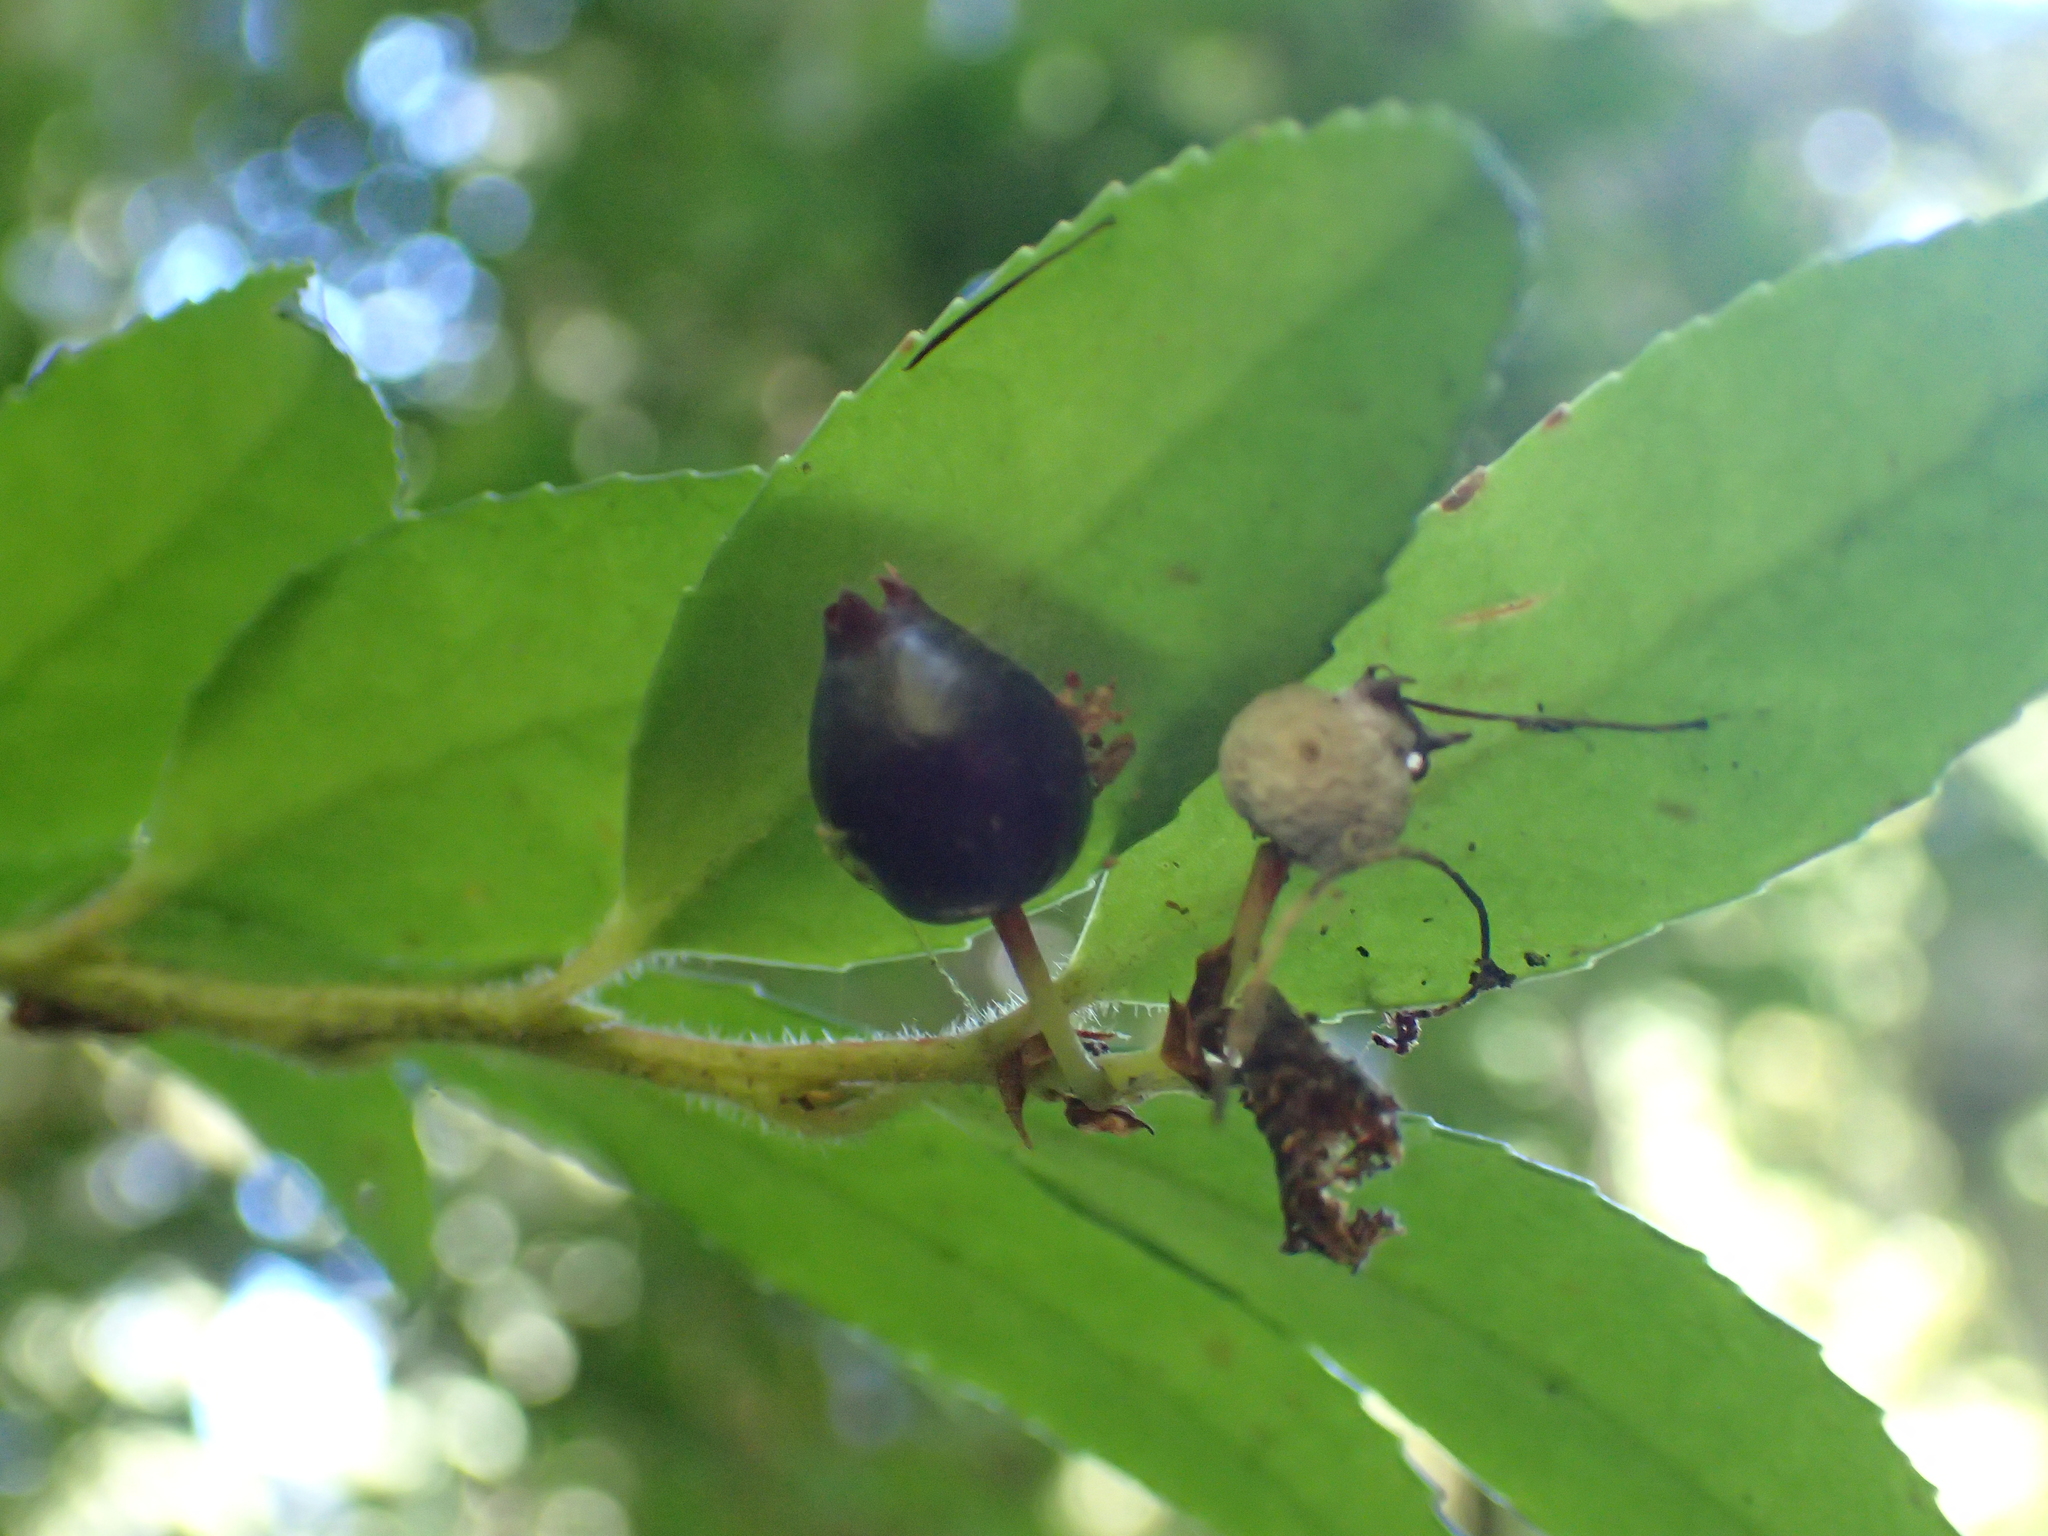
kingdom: Plantae
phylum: Tracheophyta
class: Magnoliopsida
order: Ericales
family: Ericaceae
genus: Vaccinium
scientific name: Vaccinium ovatum
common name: California-huckleberry
